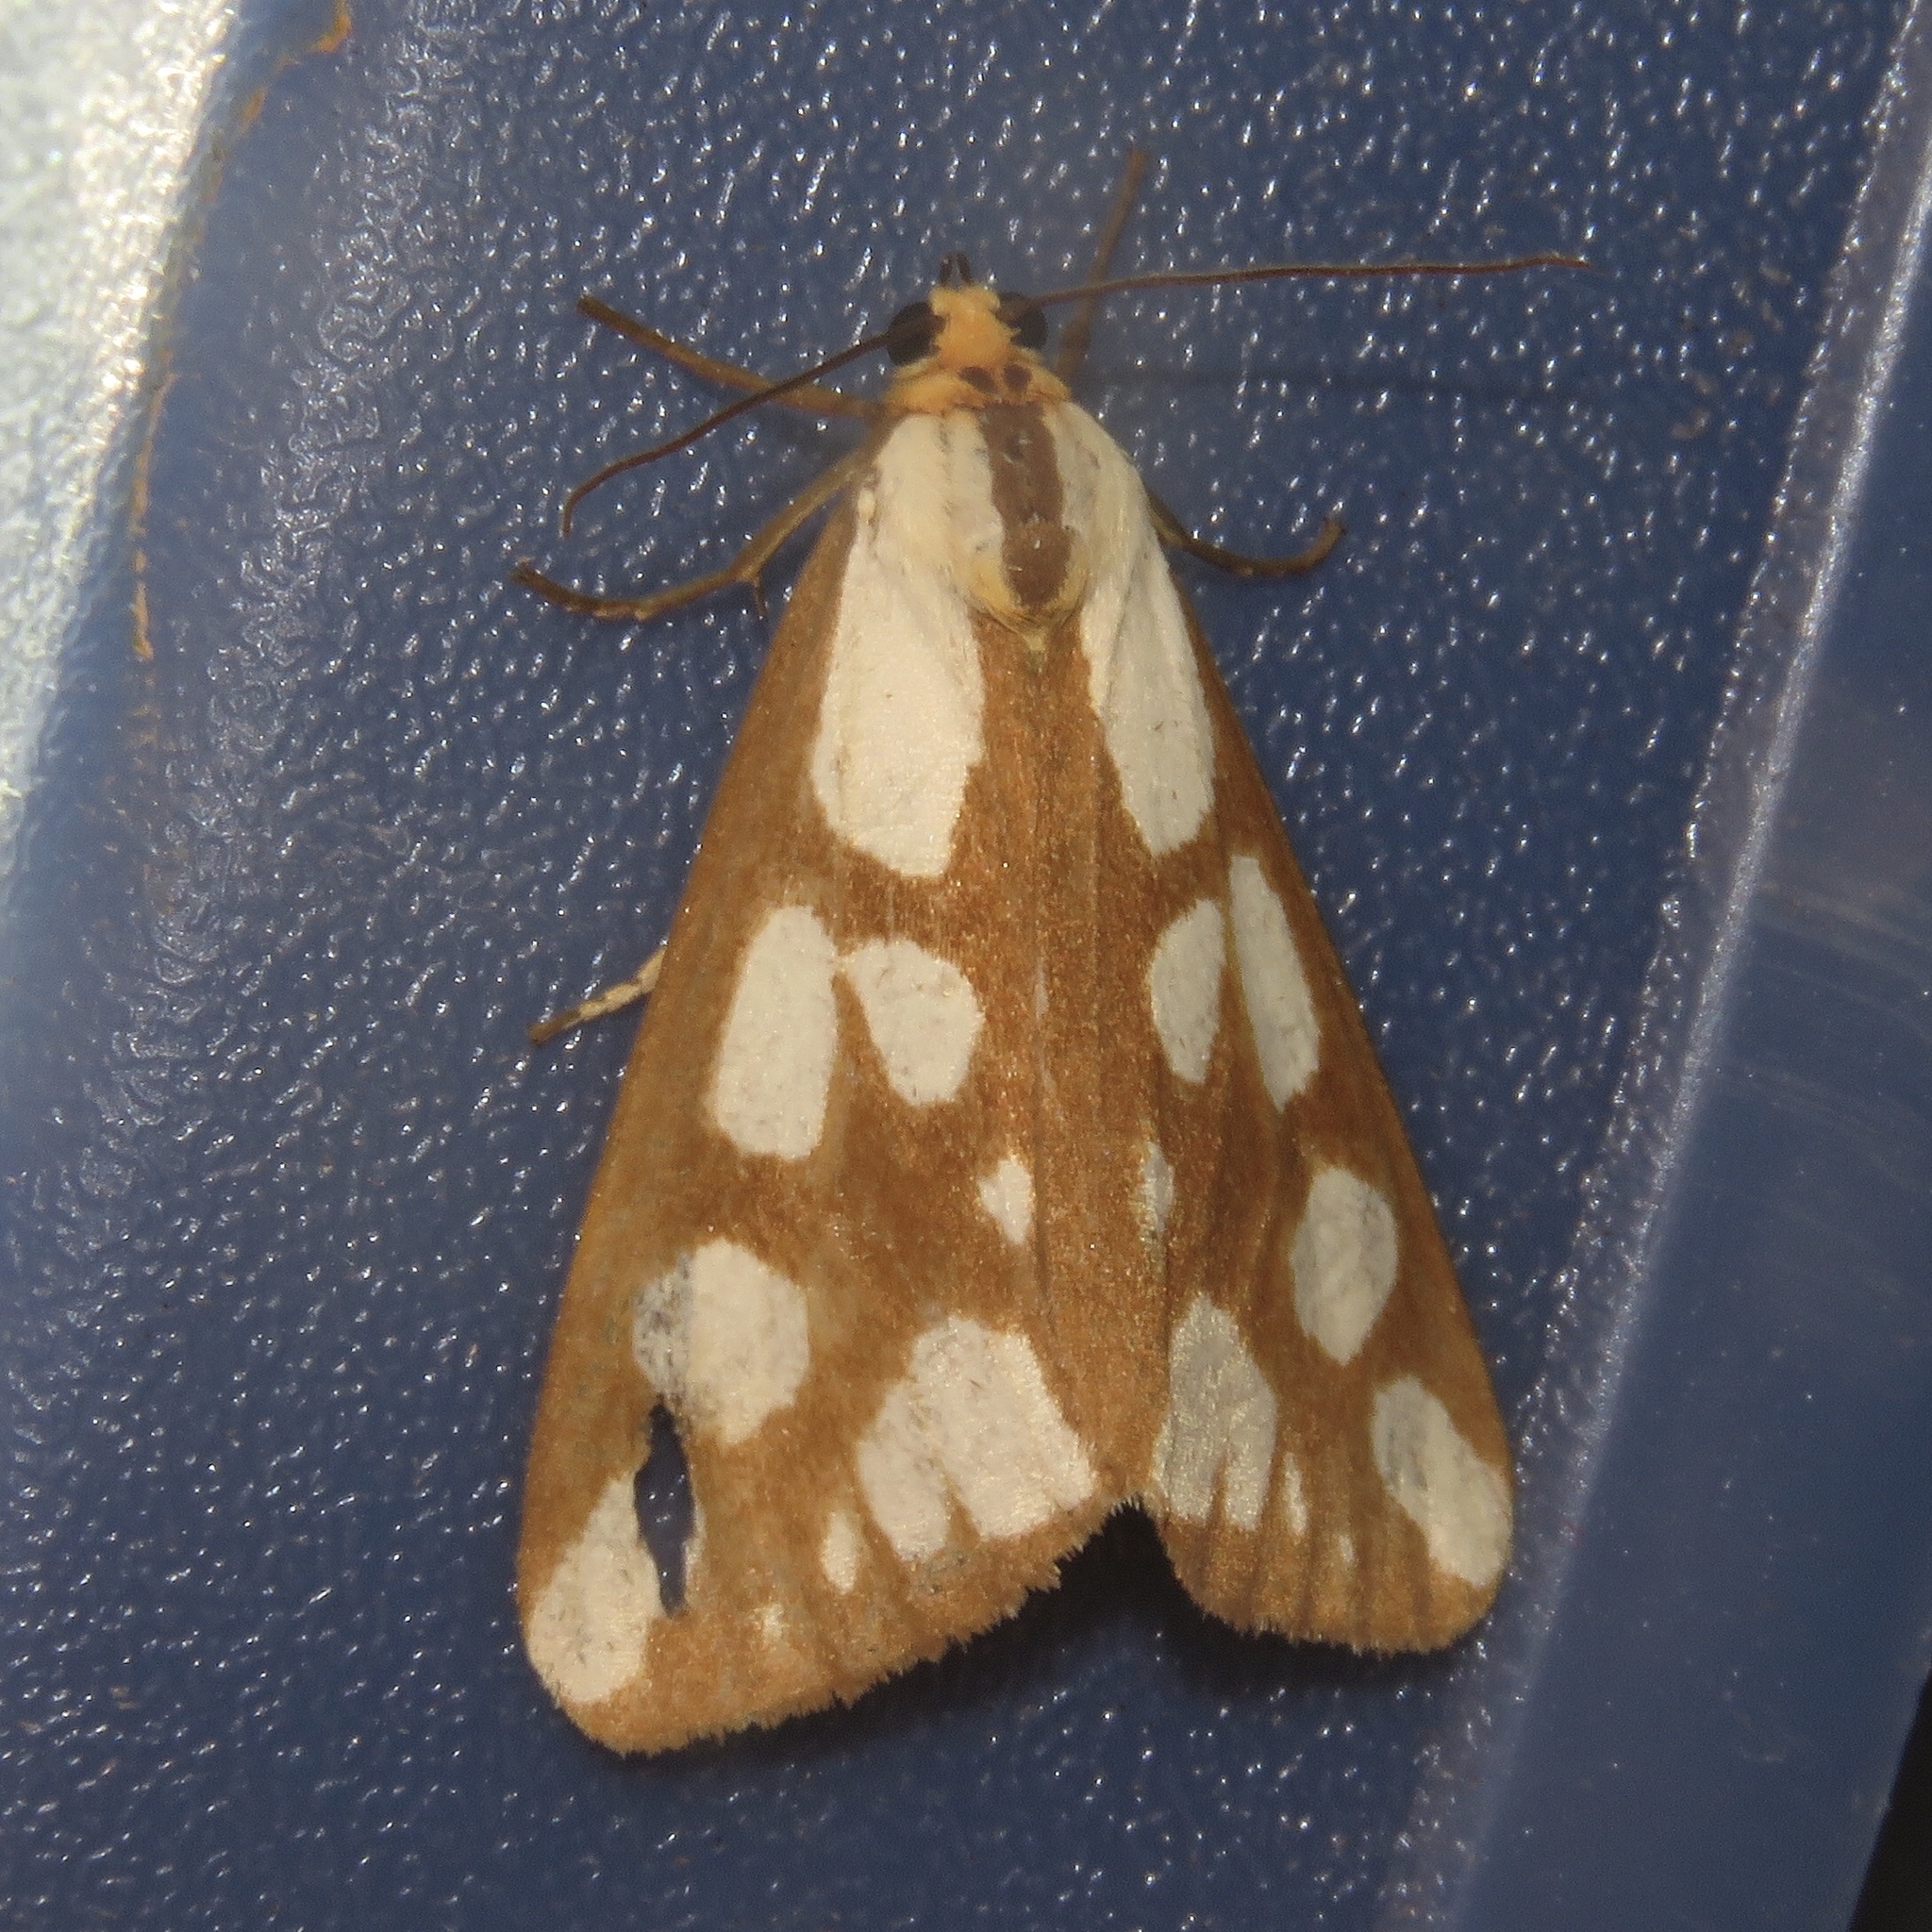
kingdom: Animalia
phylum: Arthropoda
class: Insecta
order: Lepidoptera
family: Erebidae
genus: Haploa
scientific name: Haploa confusa
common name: Confused haploa moth
